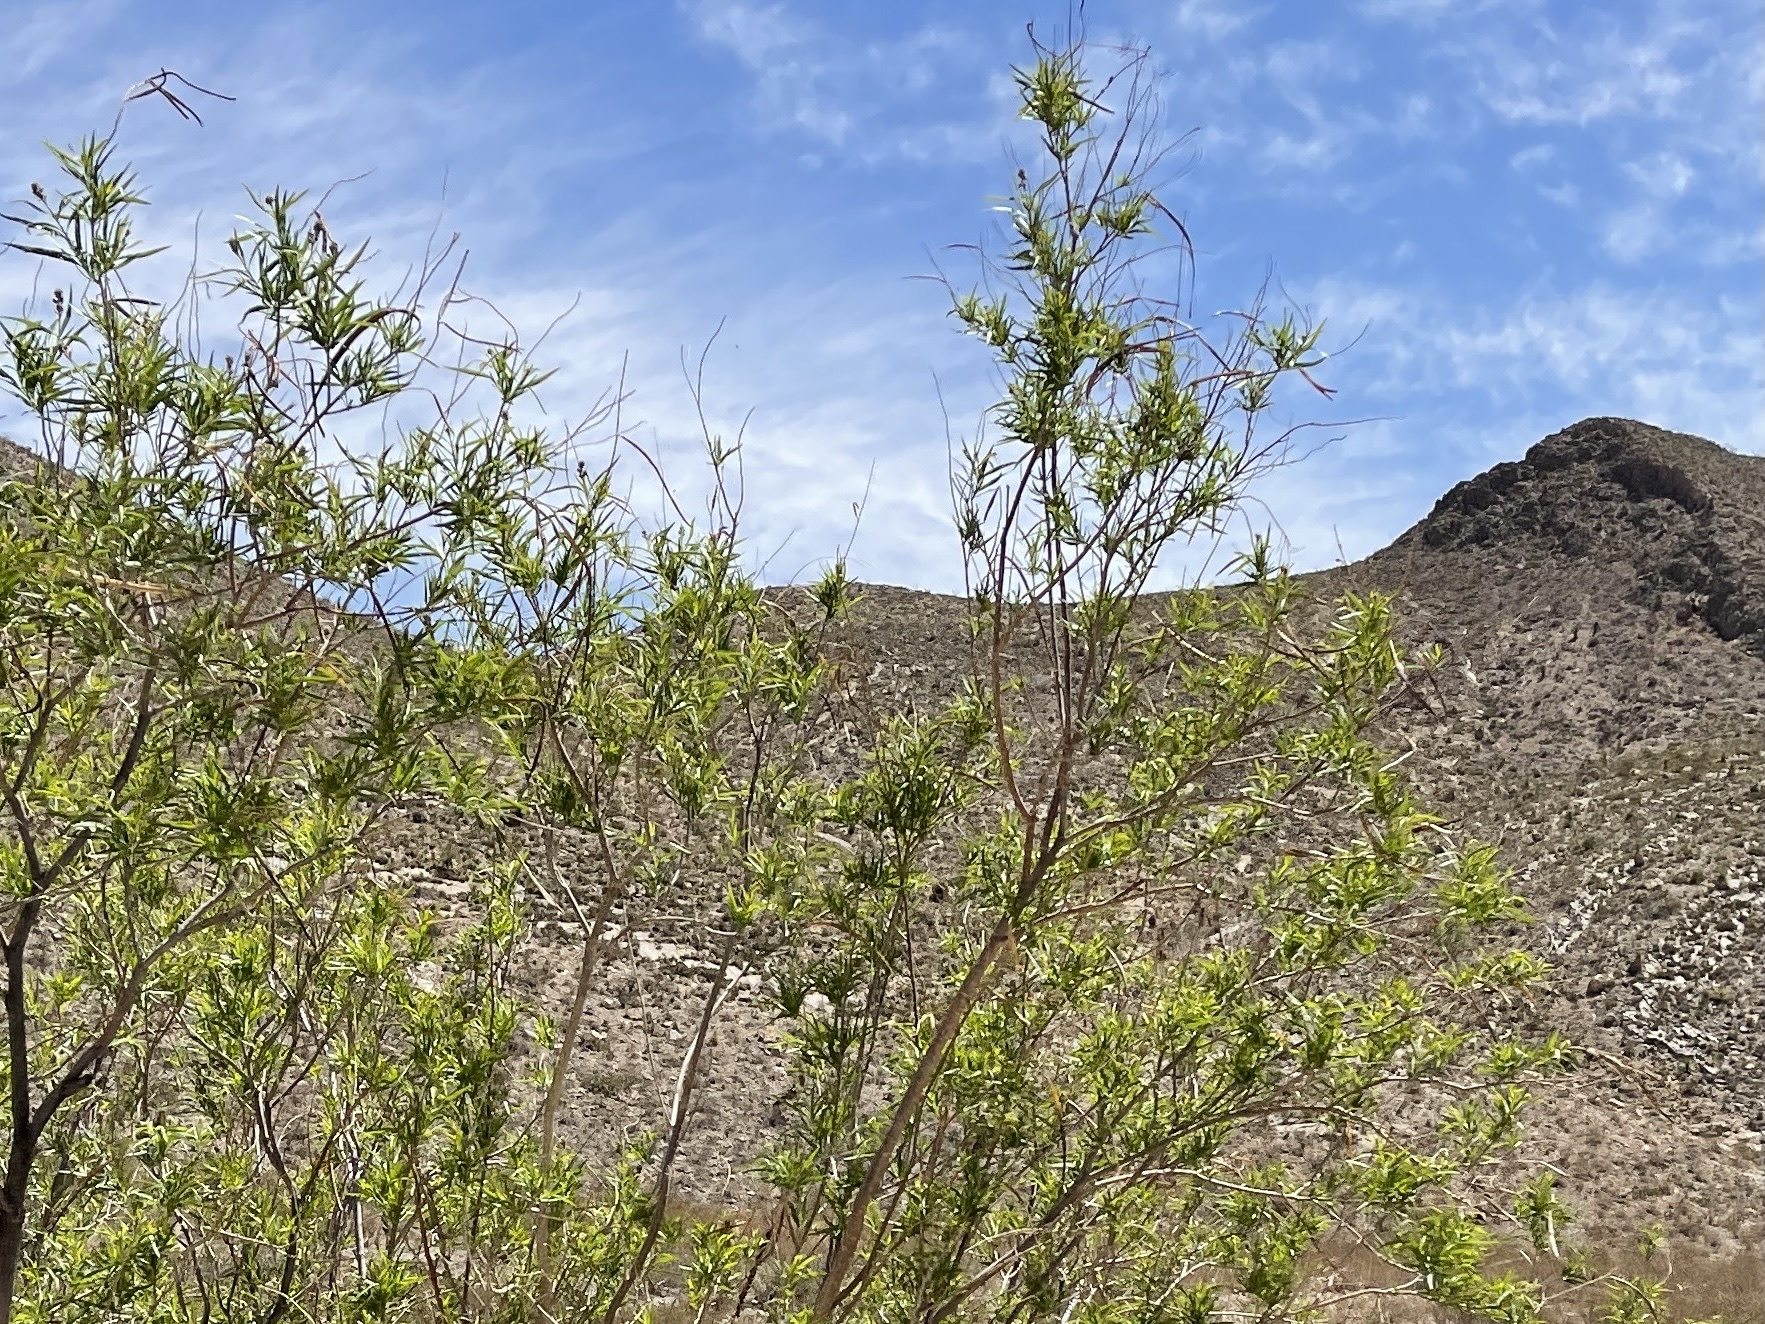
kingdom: Plantae
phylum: Tracheophyta
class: Magnoliopsida
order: Lamiales
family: Bignoniaceae
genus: Chilopsis
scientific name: Chilopsis linearis
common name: Desert-willow
